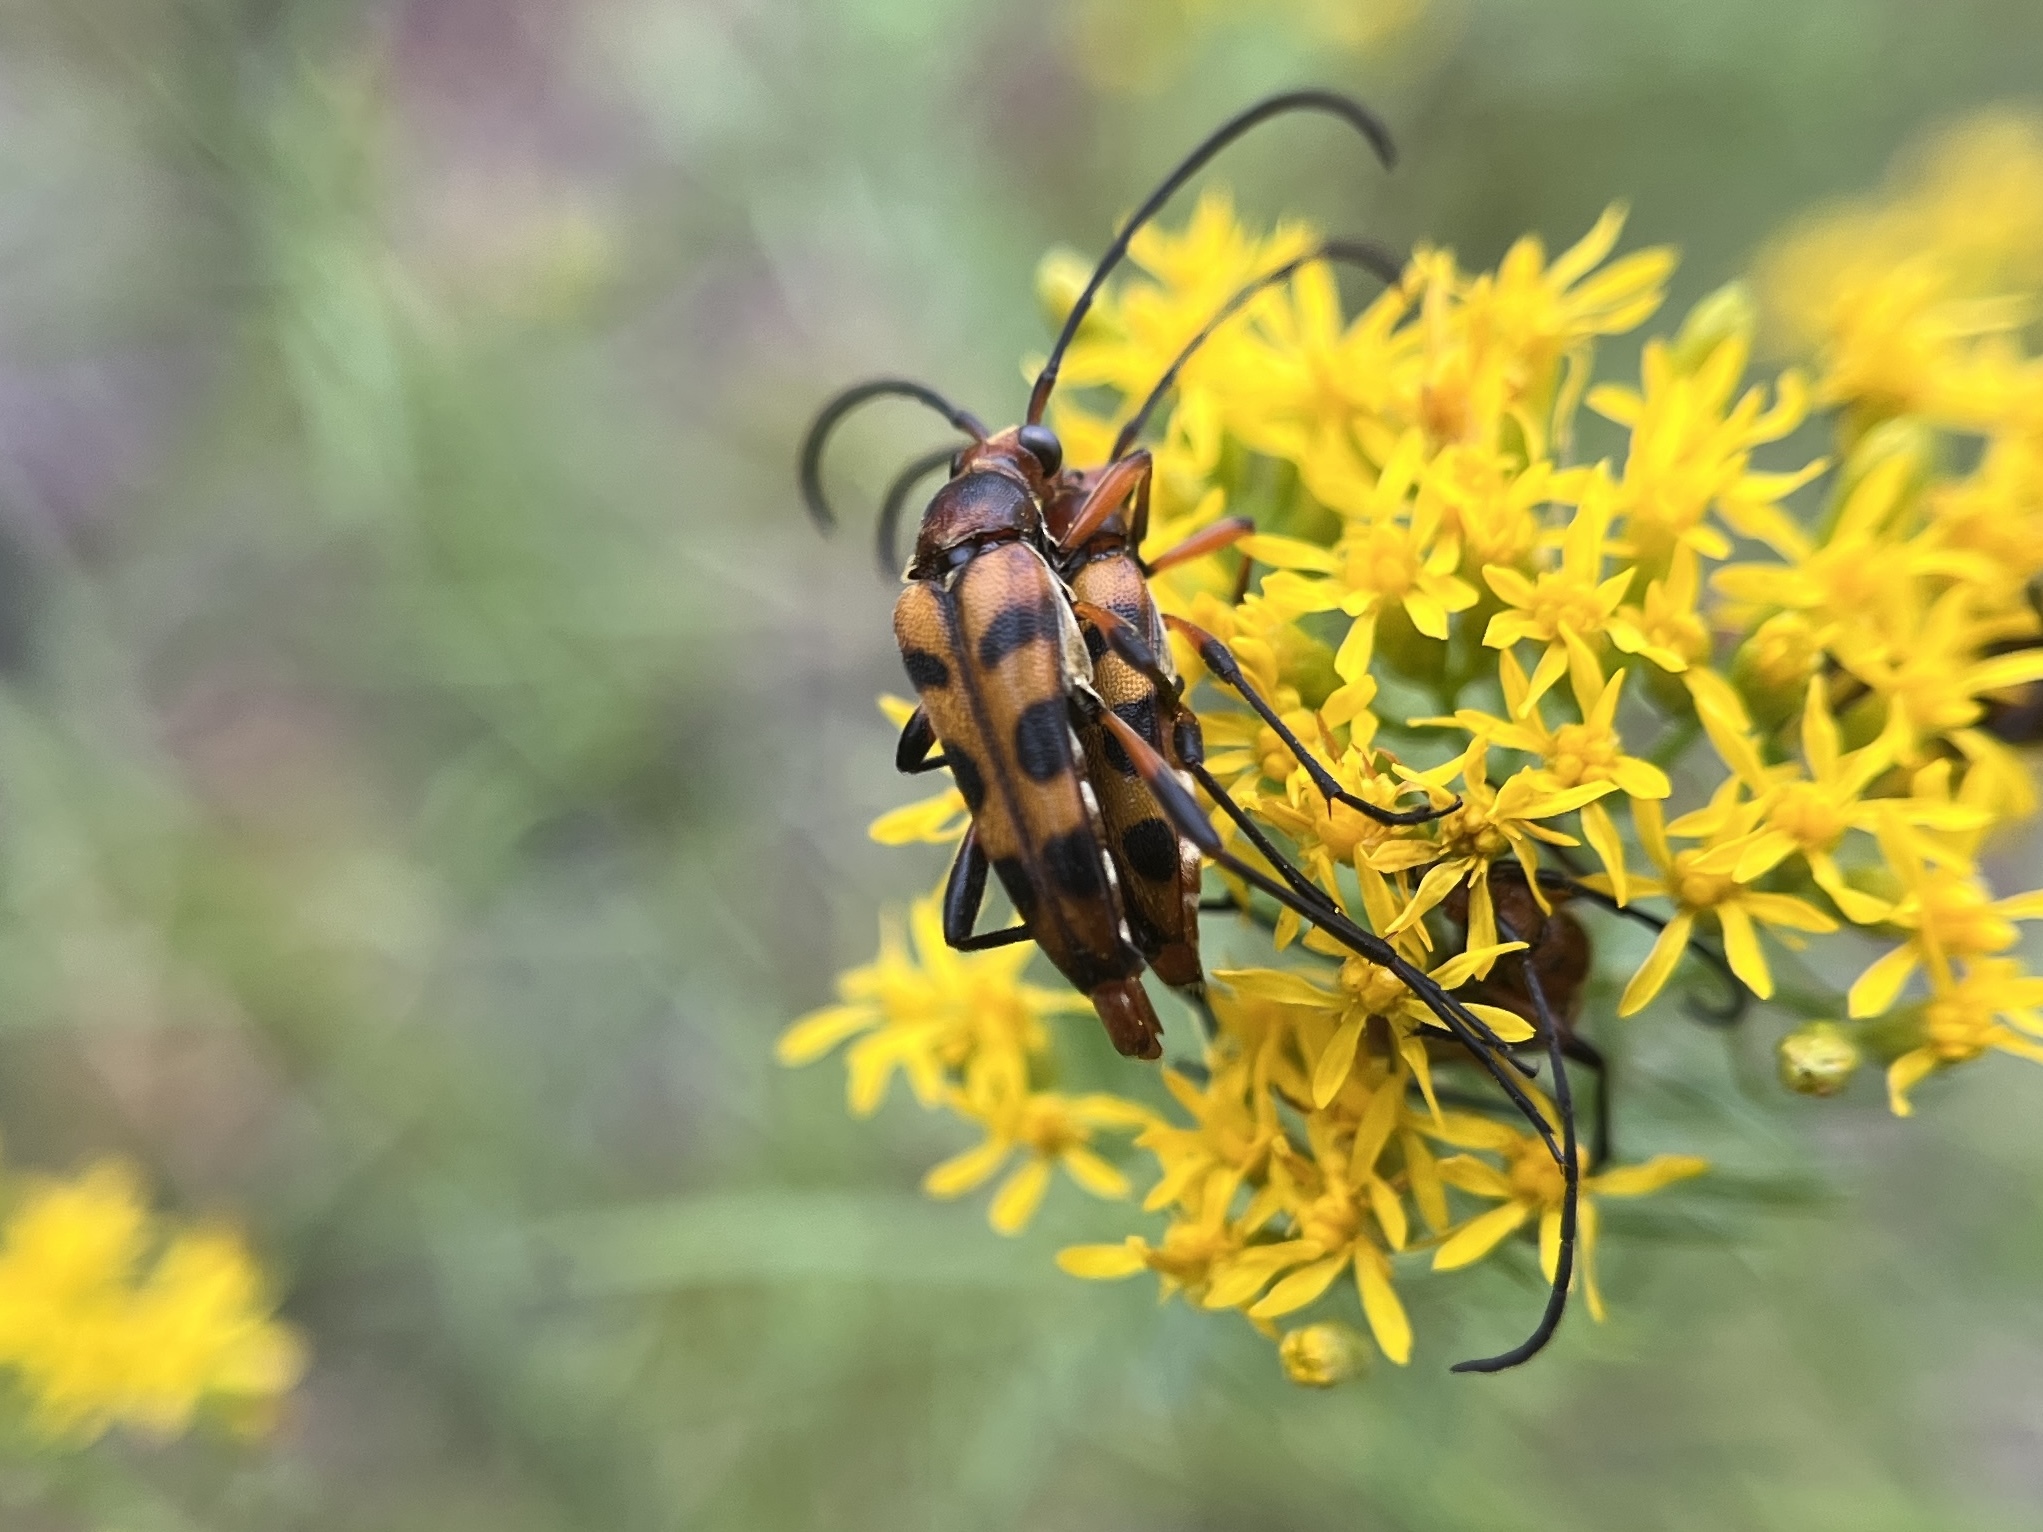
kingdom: Animalia
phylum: Arthropoda
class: Insecta
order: Coleoptera
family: Cerambycidae
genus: Strangalia
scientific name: Strangalia sexnotata
